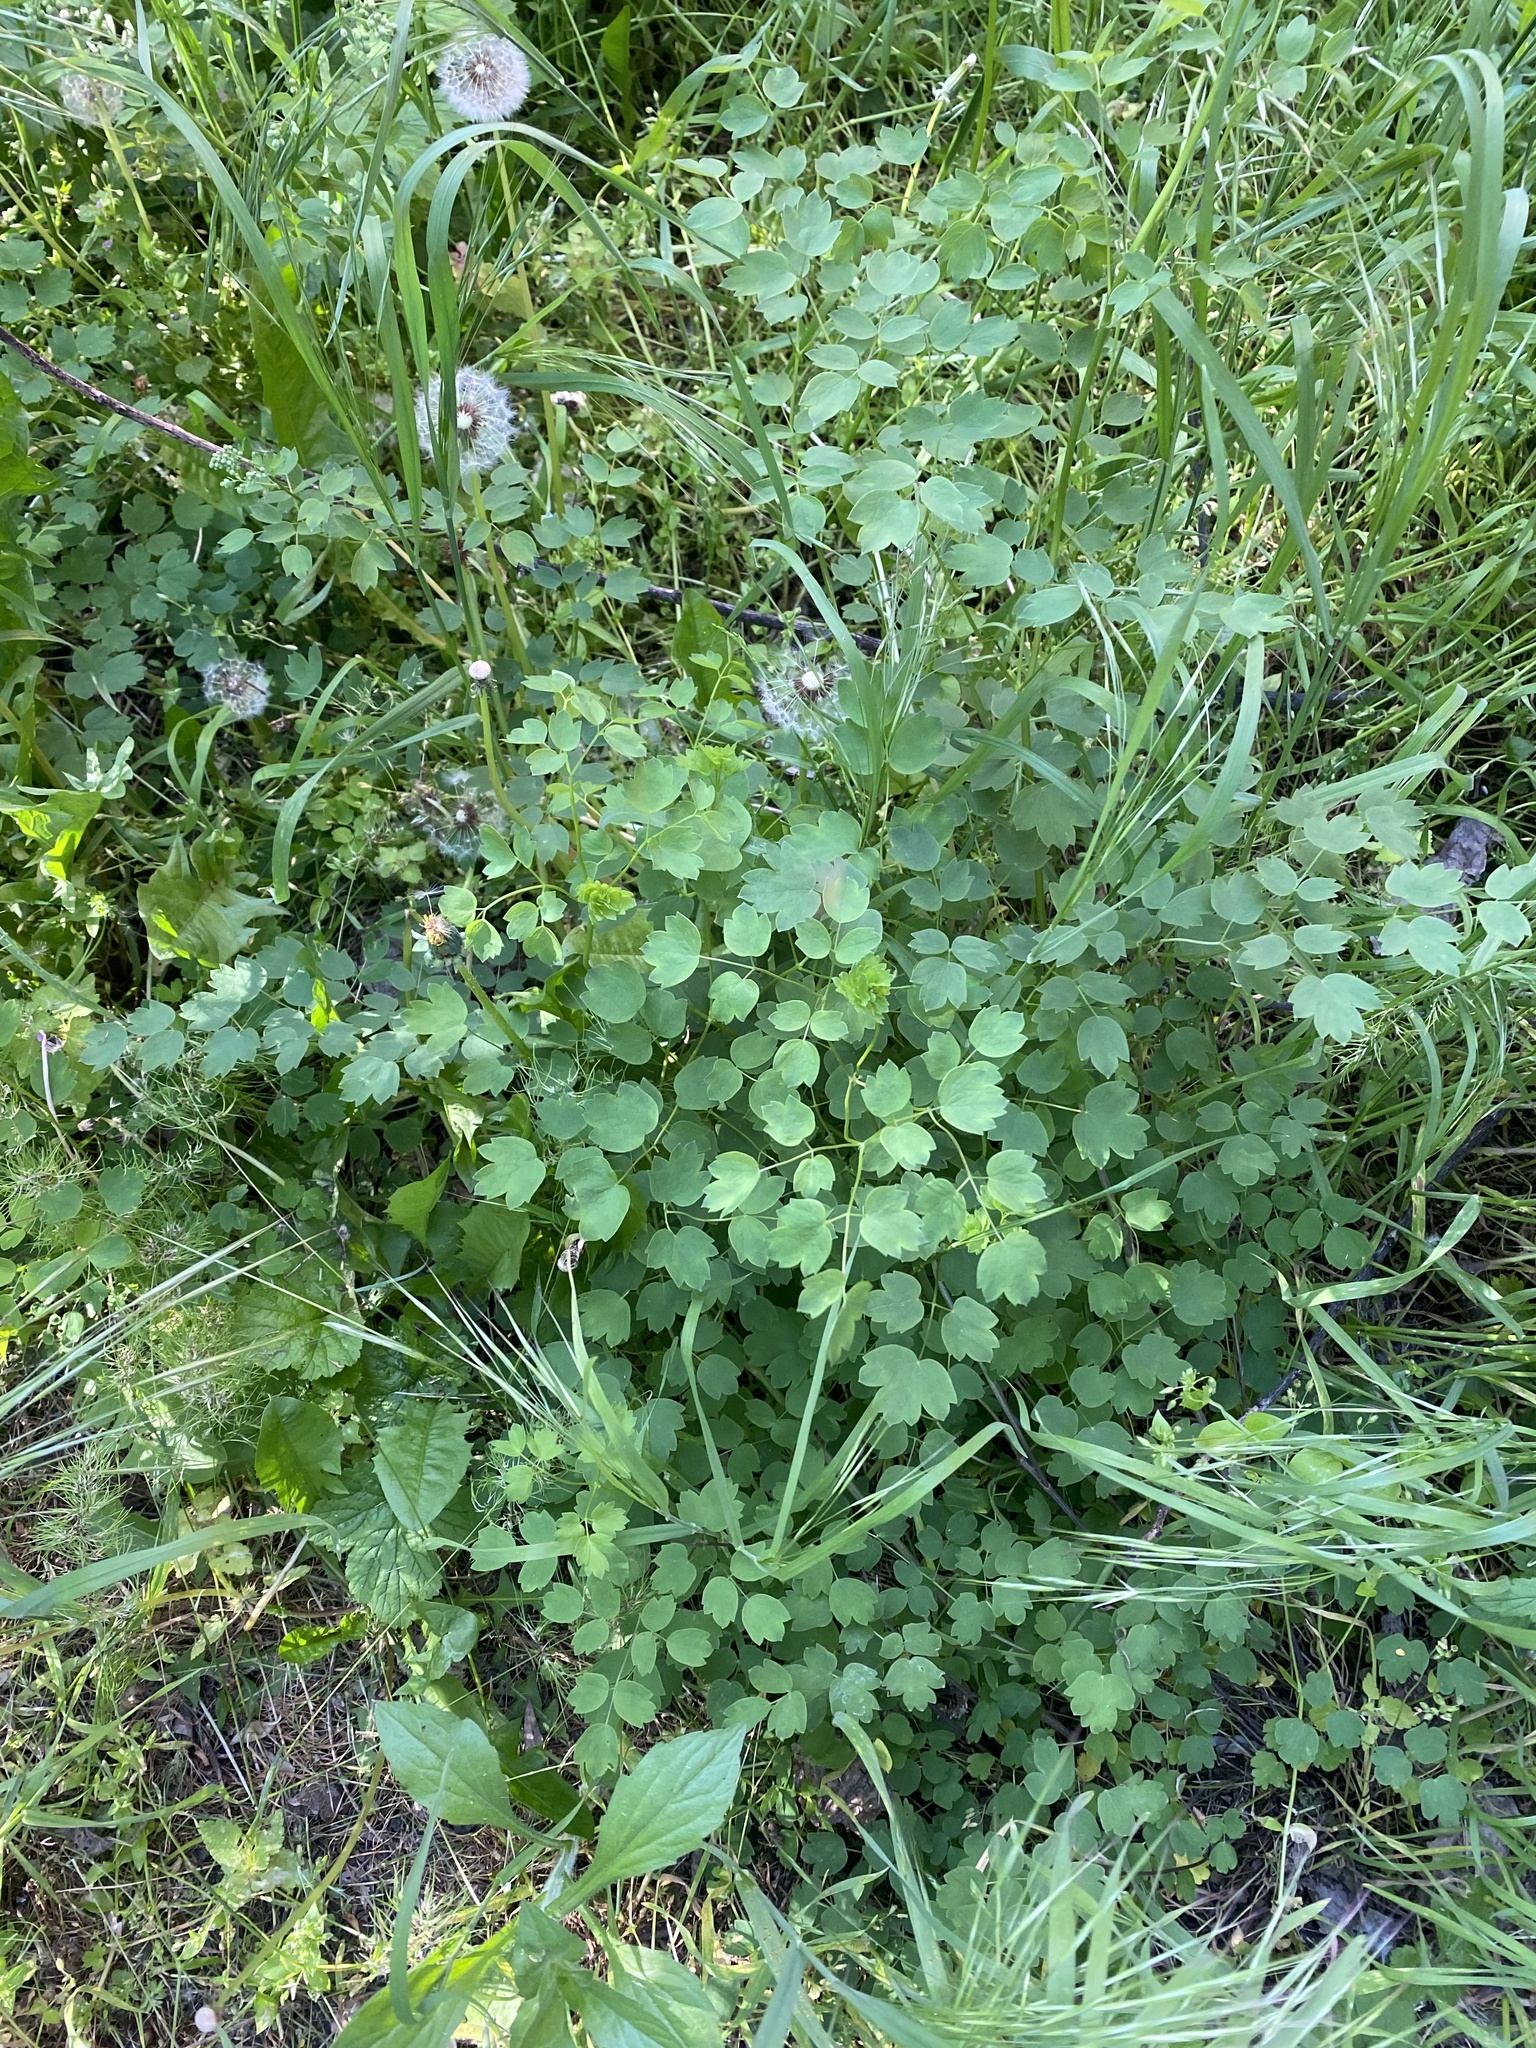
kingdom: Plantae
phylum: Tracheophyta
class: Magnoliopsida
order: Ranunculales
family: Ranunculaceae
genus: Thalictrum
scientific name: Thalictrum minus
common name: Lesser meadow-rue
